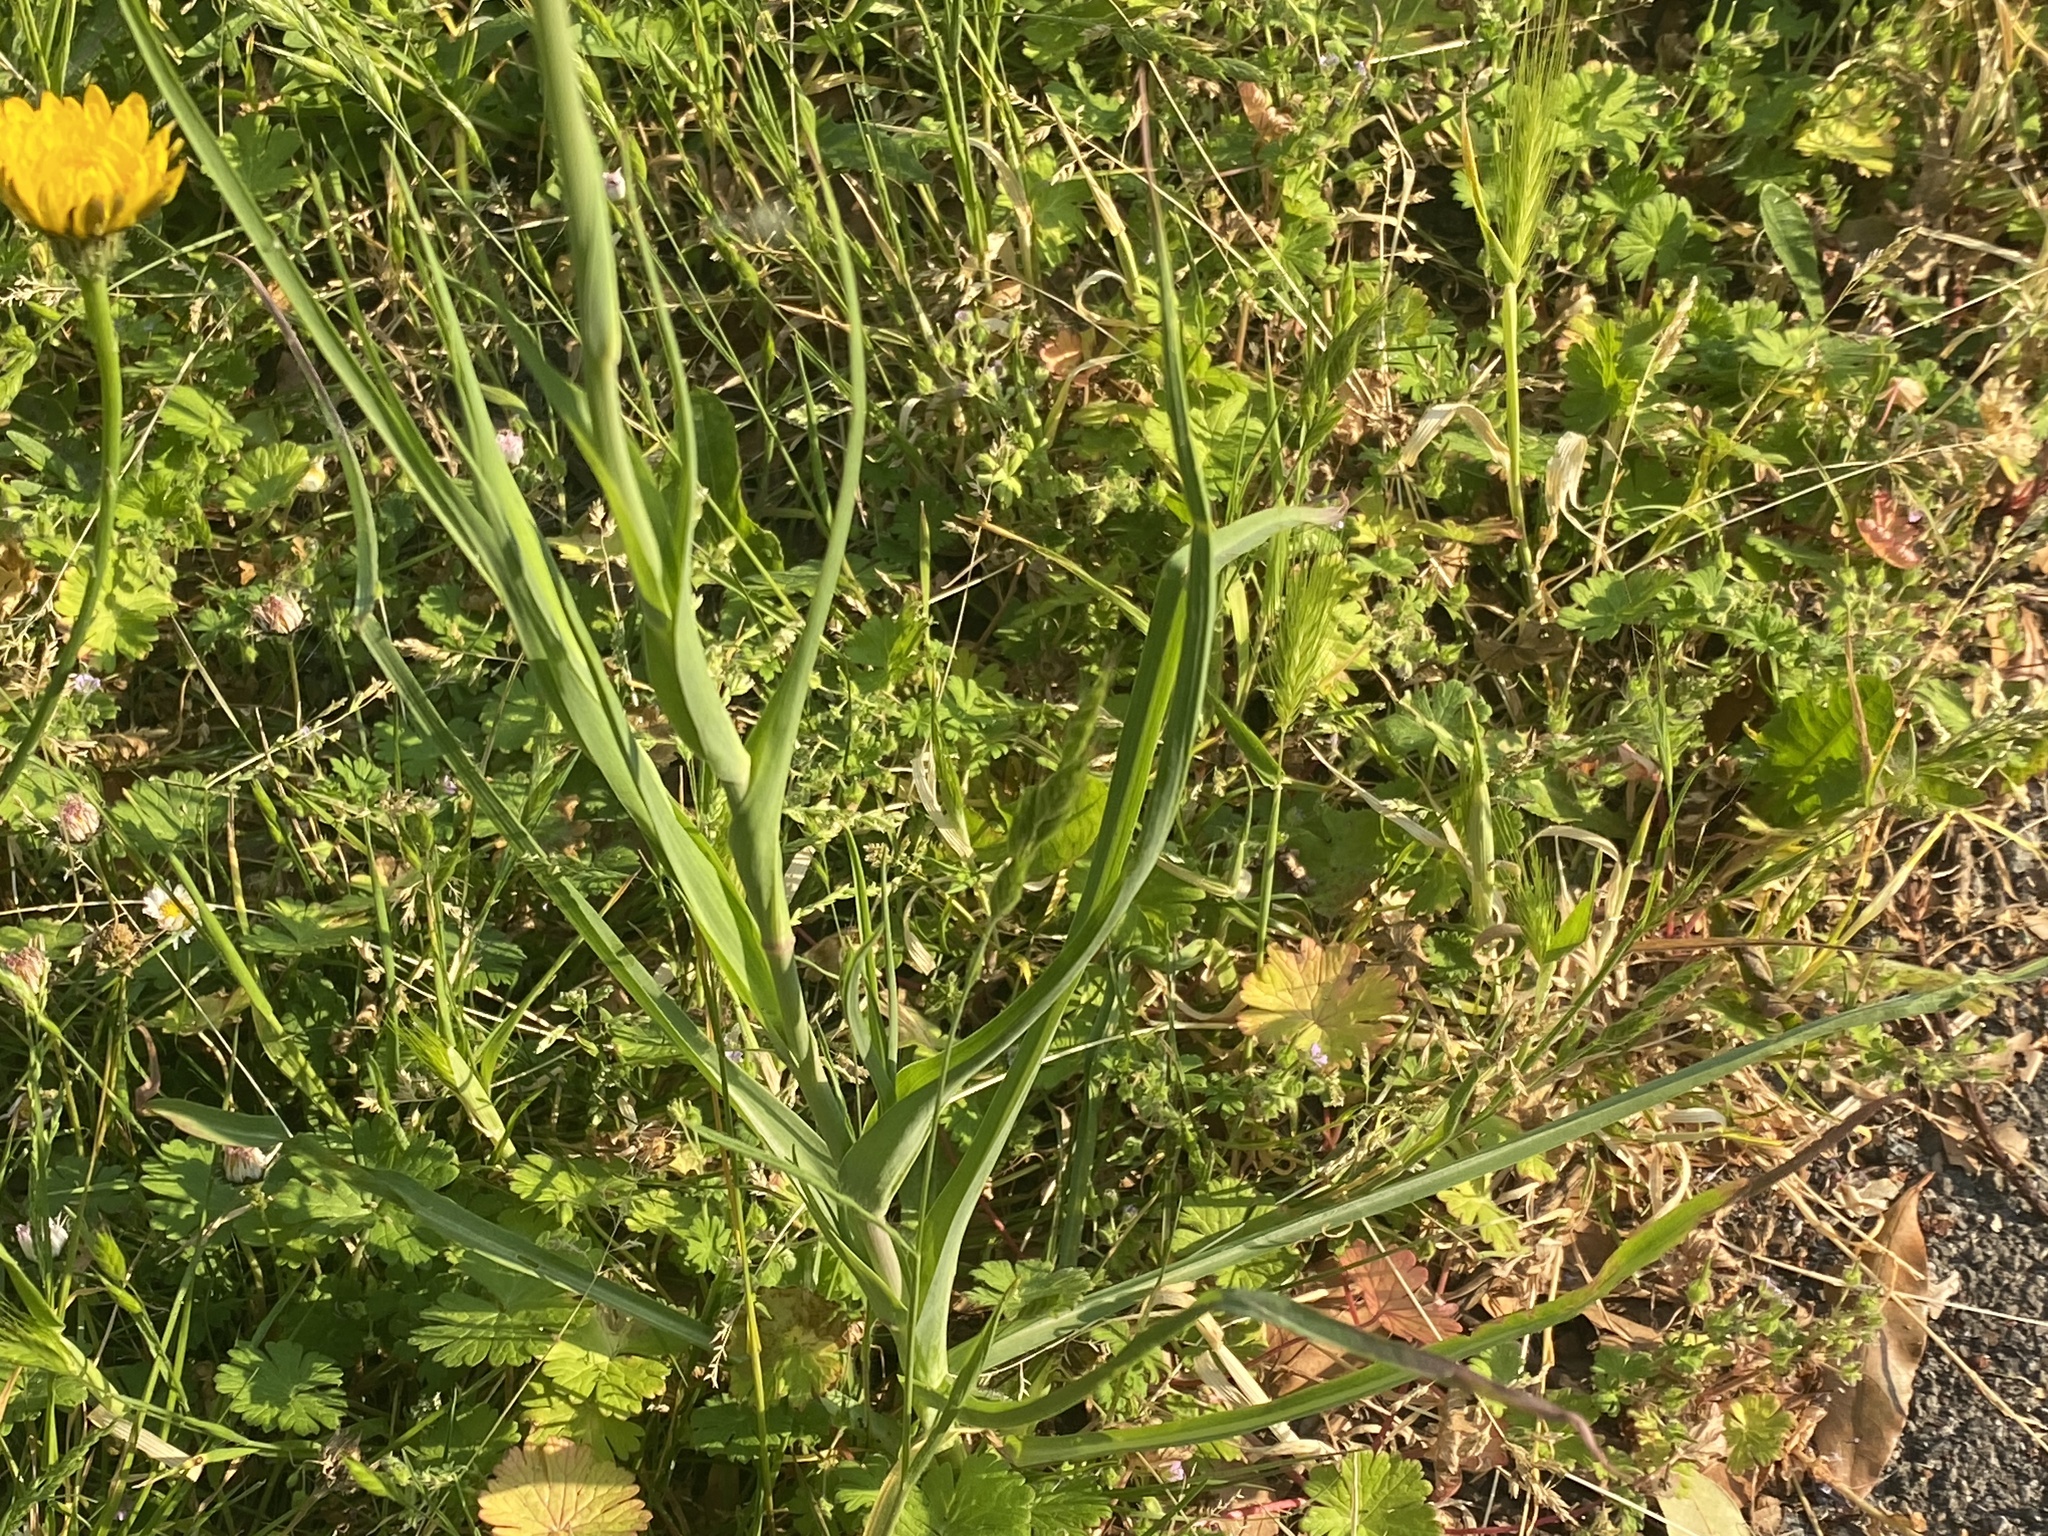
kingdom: Plantae
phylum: Tracheophyta
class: Magnoliopsida
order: Asterales
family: Asteraceae
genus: Tragopogon
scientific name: Tragopogon porrifolius
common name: Salsify
